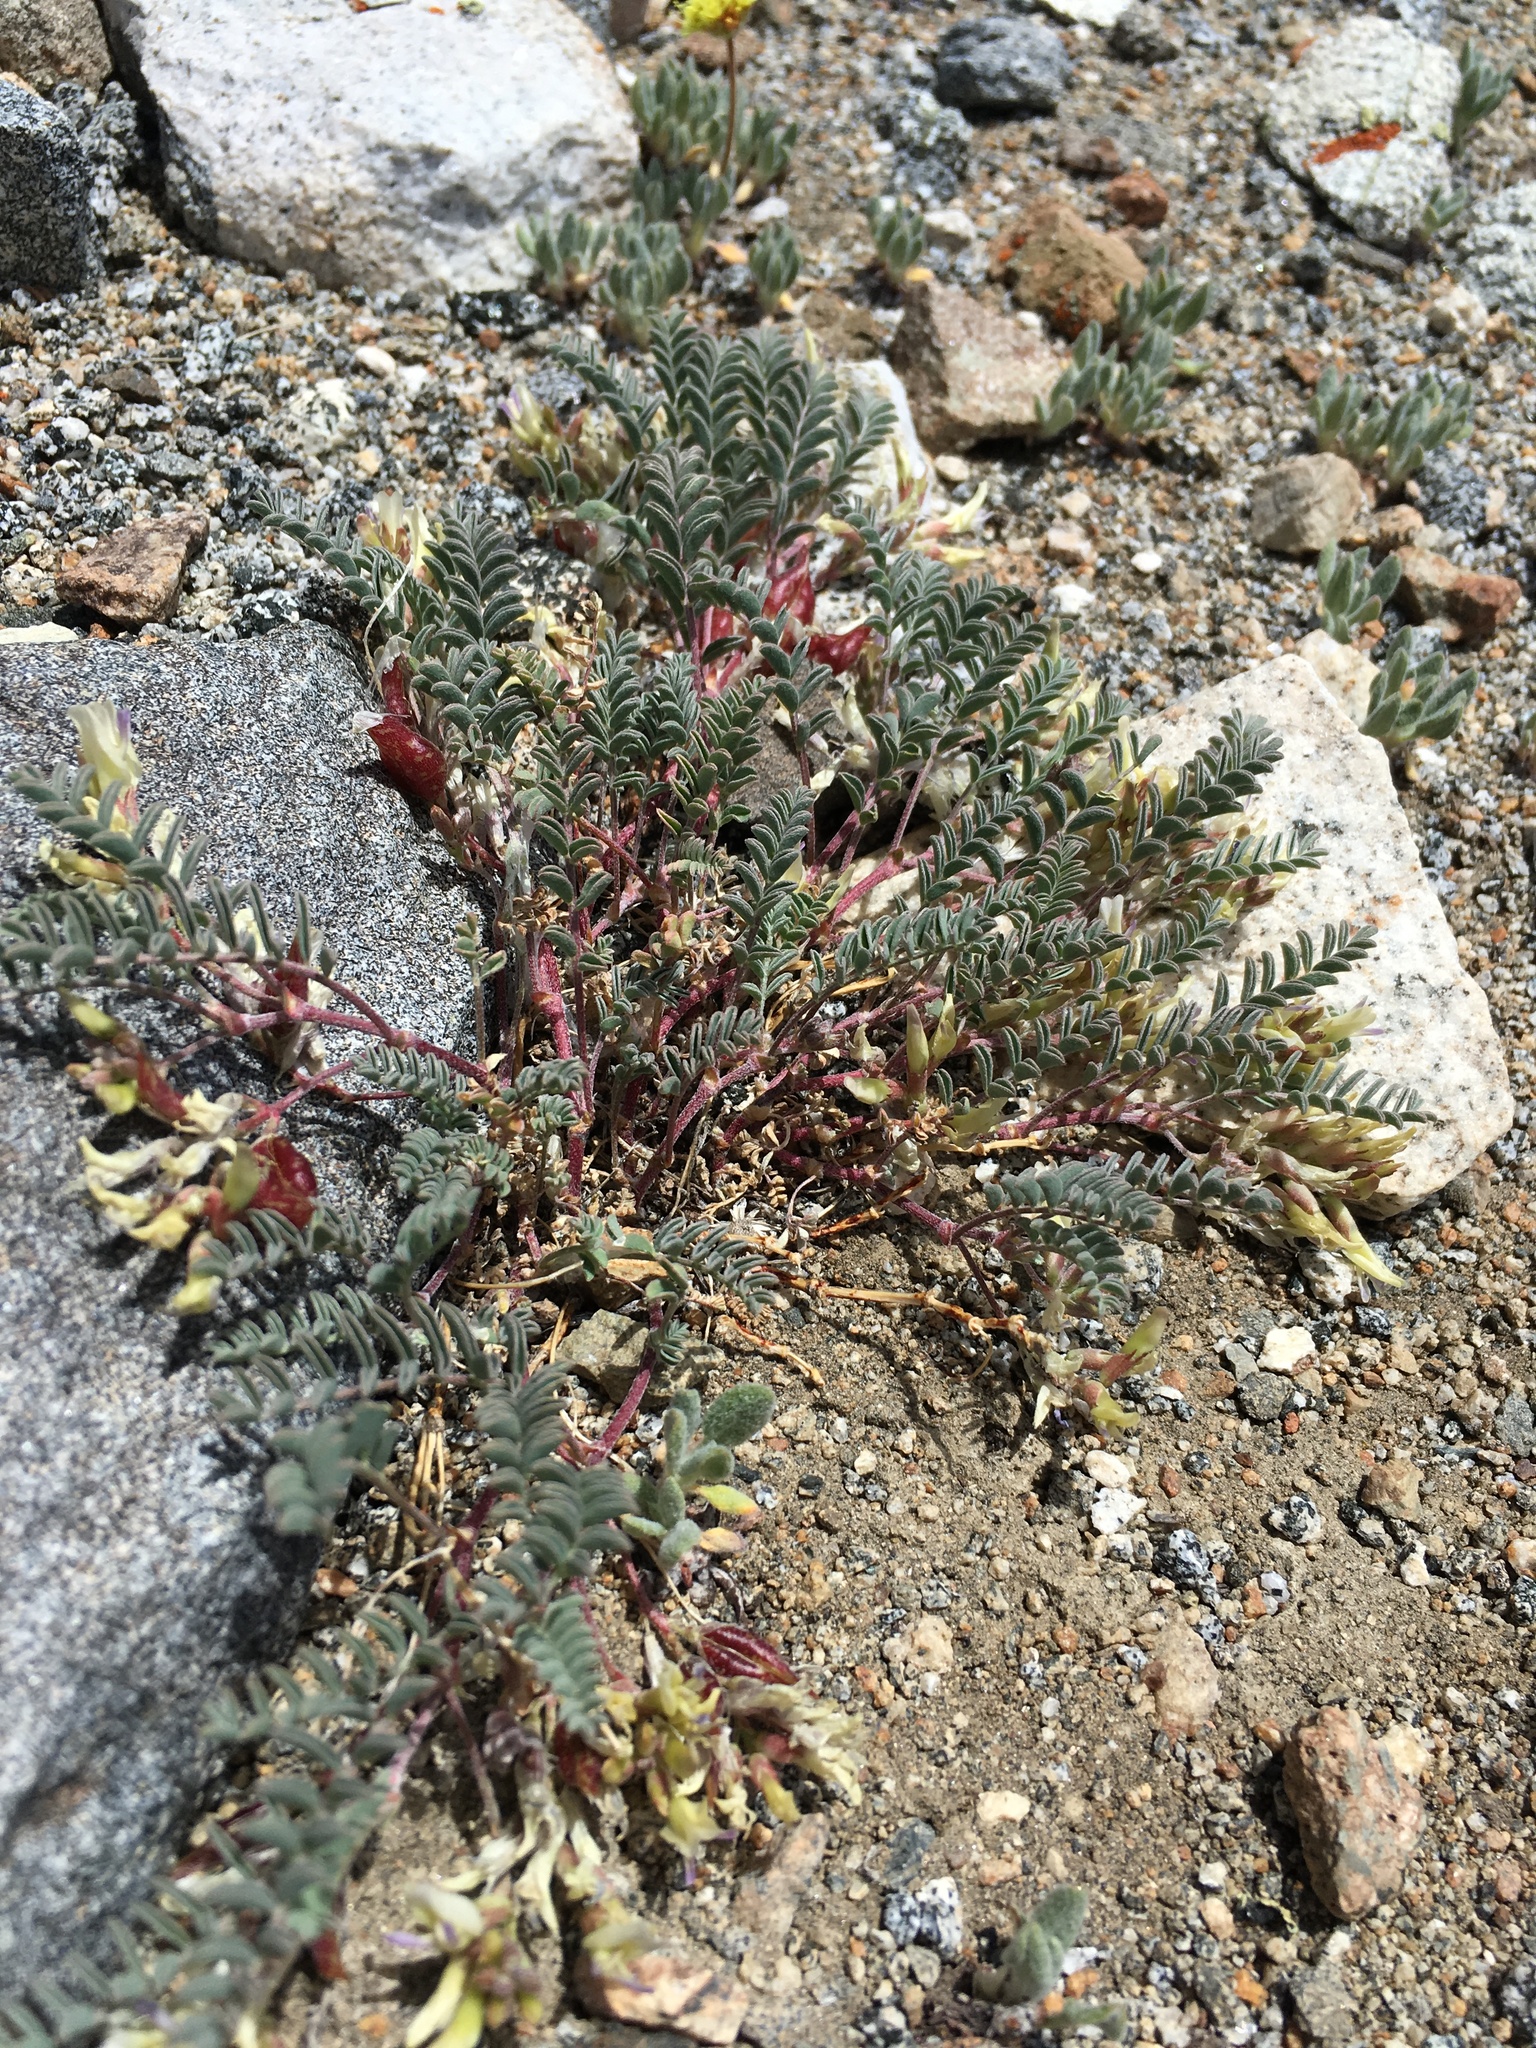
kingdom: Plantae
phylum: Tracheophyta
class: Magnoliopsida
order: Fabales
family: Fabaceae
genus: Astragalus
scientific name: Astragalus lentiginosus
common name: Freckled milkvetch
